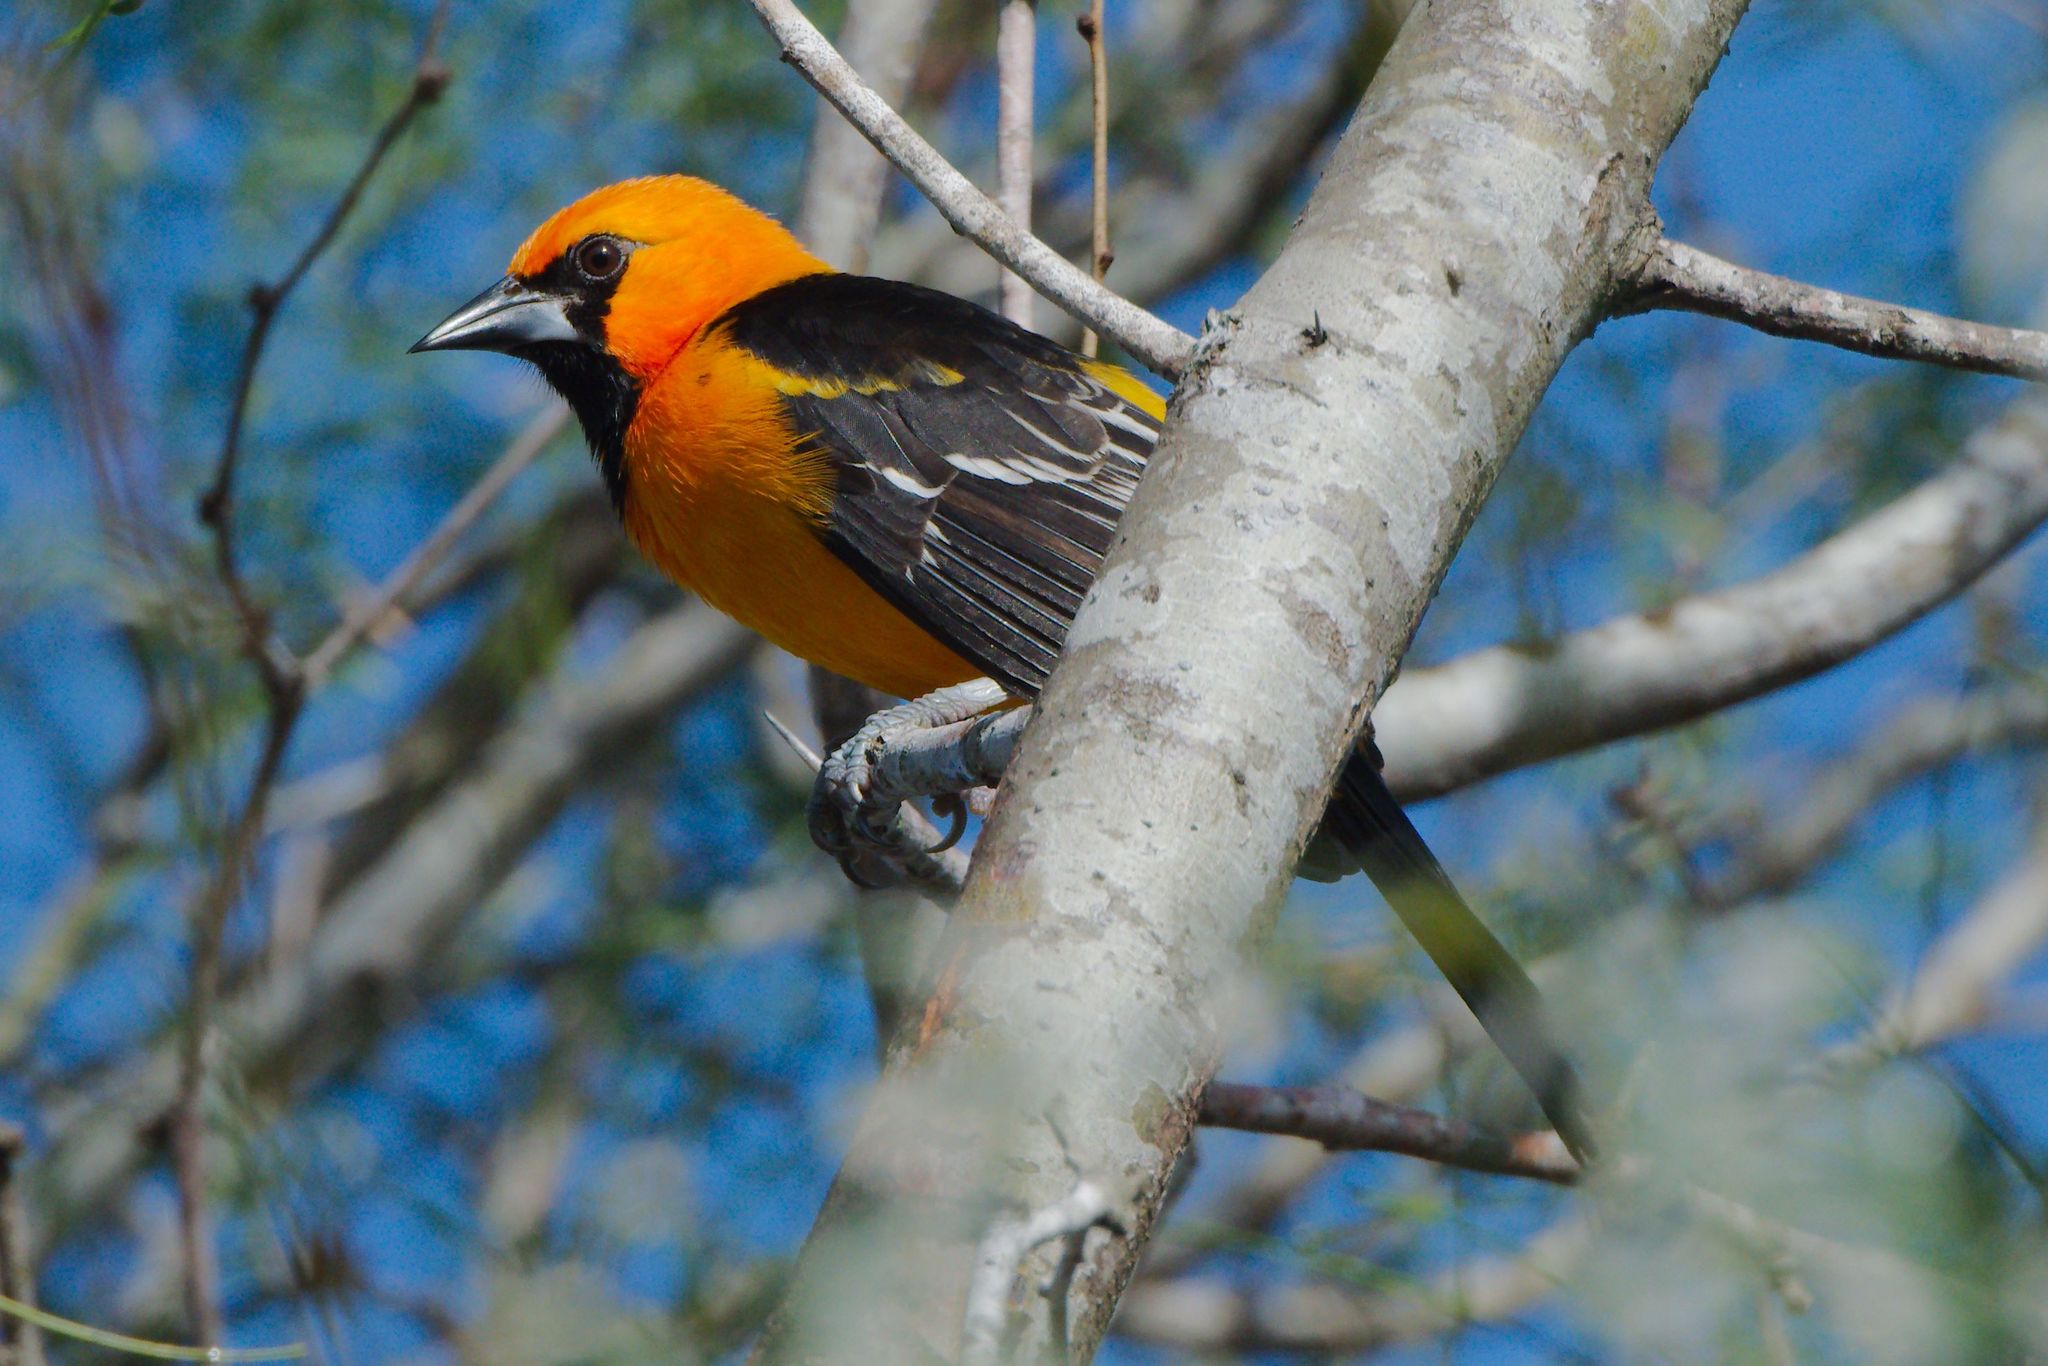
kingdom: Animalia
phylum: Chordata
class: Aves
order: Passeriformes
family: Icteridae
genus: Icterus
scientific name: Icterus gularis
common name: Altamira oriole
